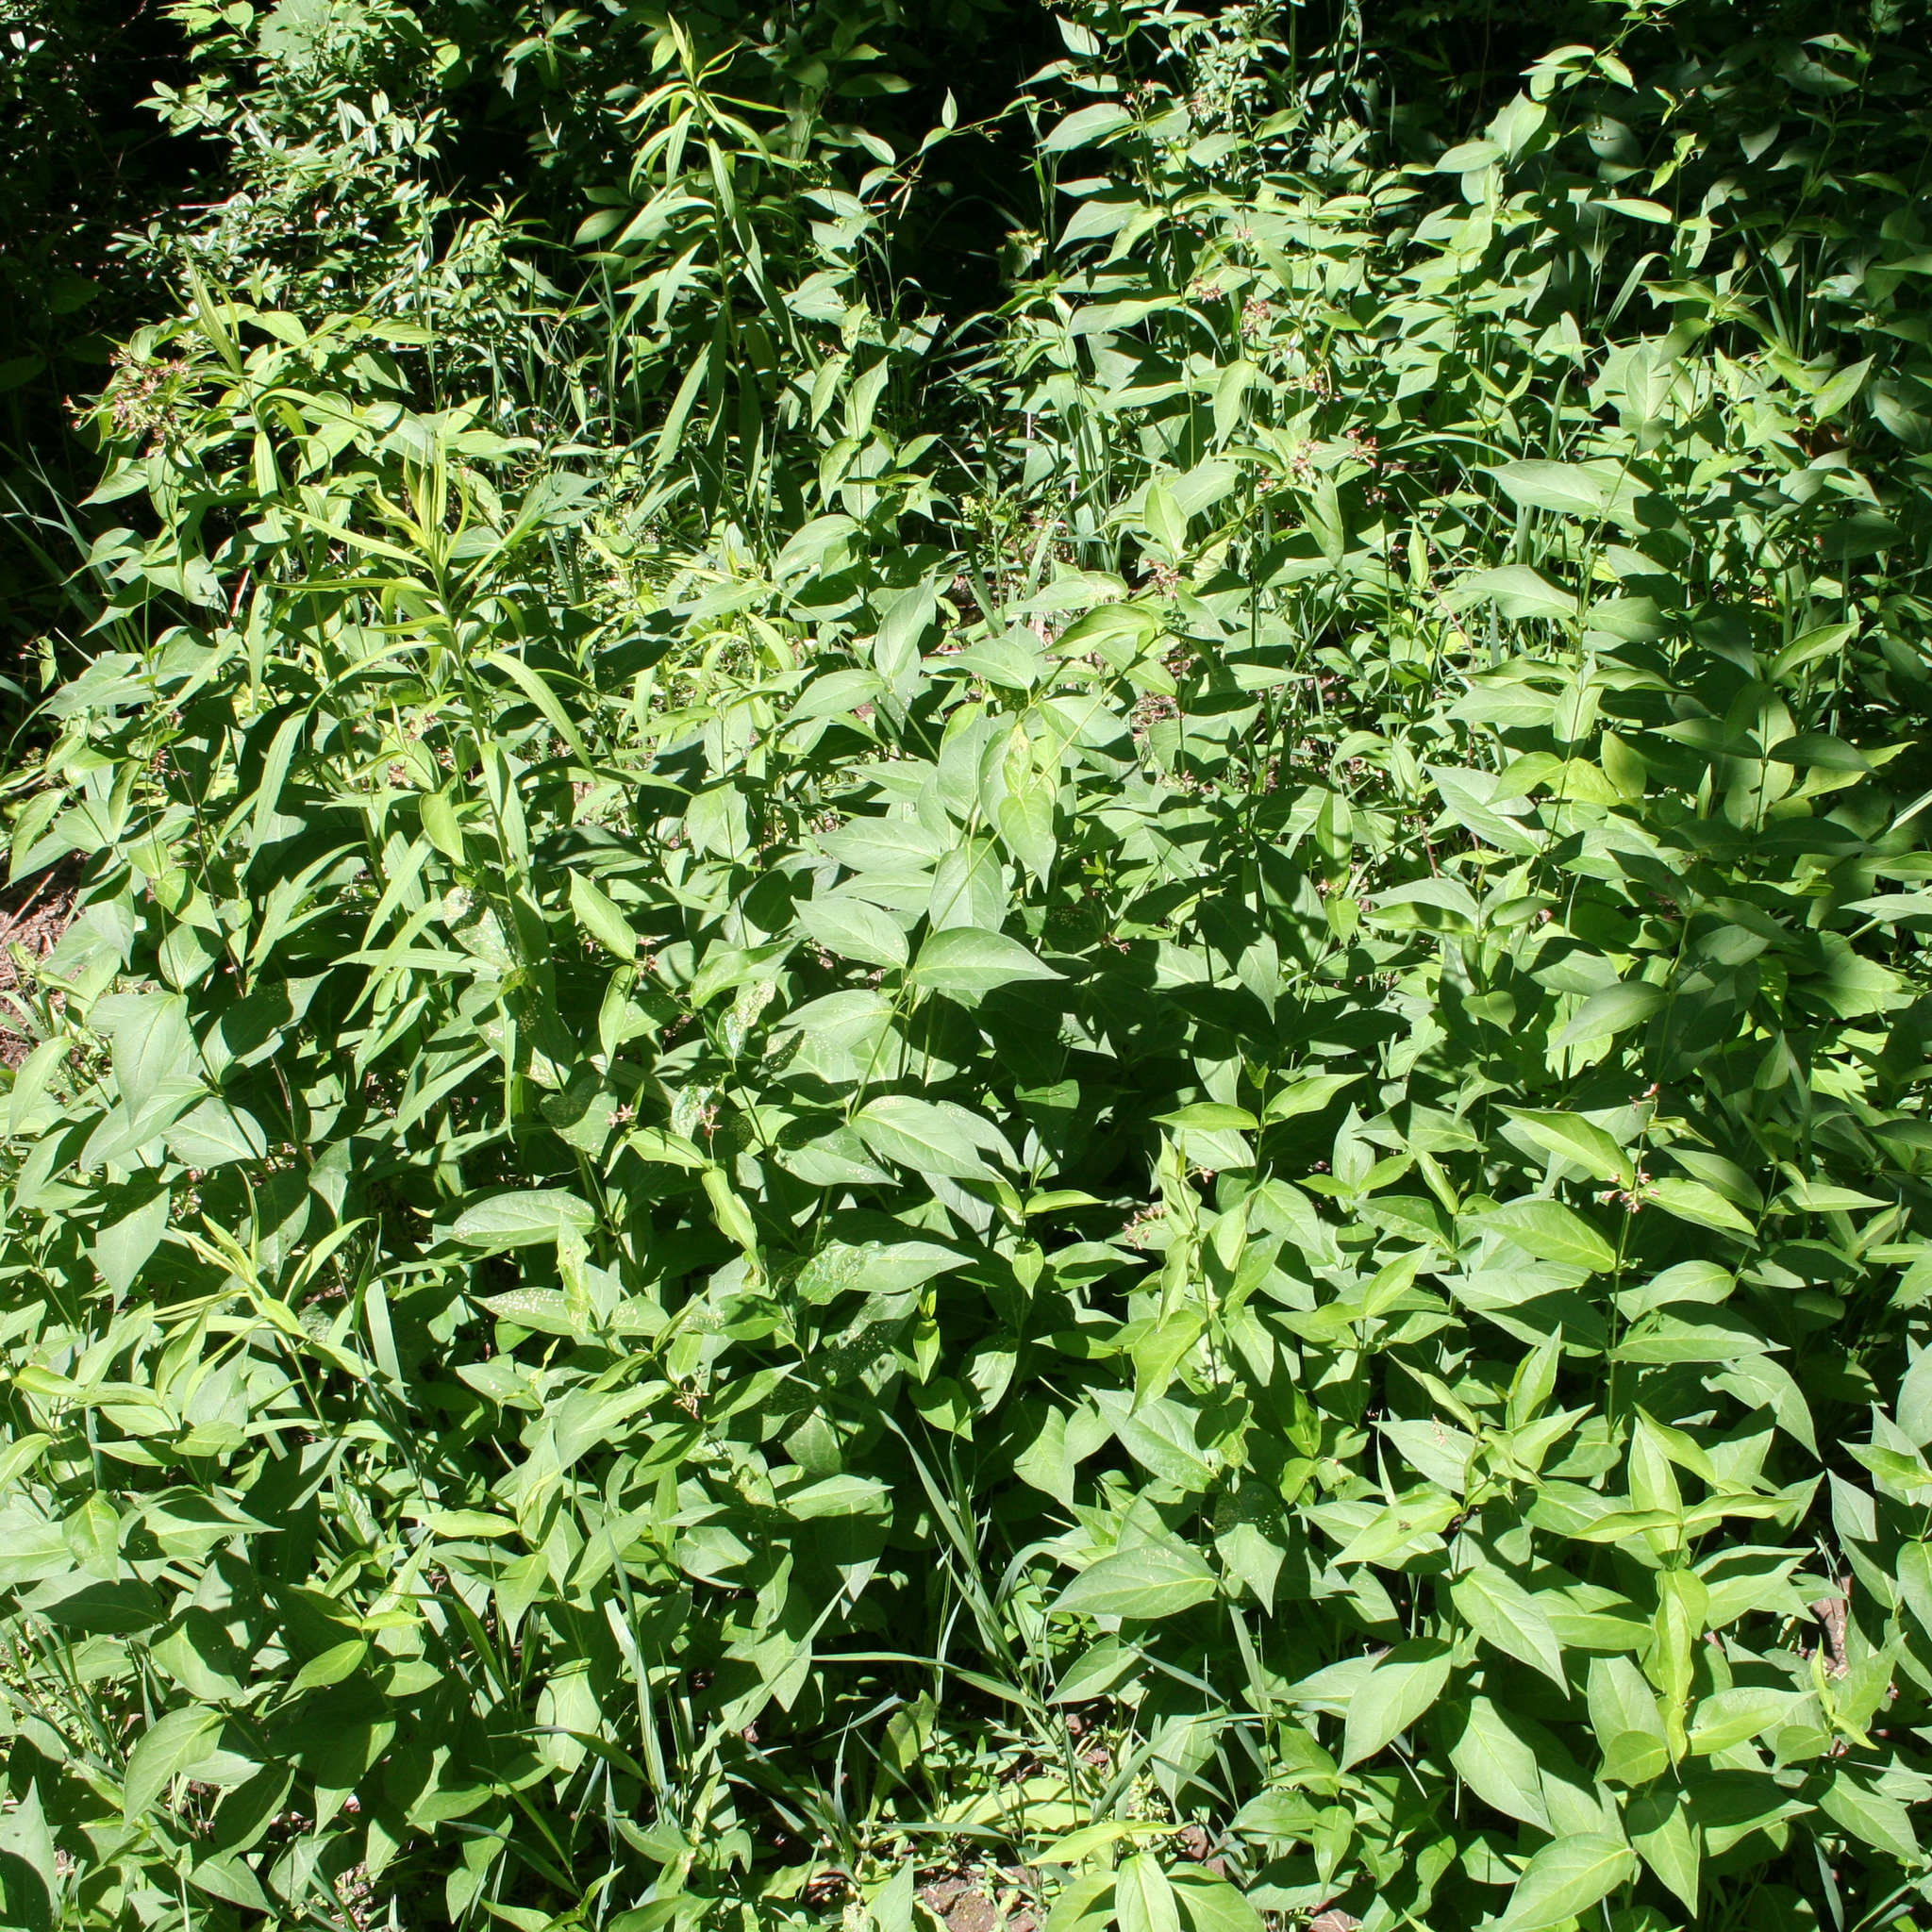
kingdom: Plantae
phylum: Tracheophyta
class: Magnoliopsida
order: Gentianales
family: Apocynaceae
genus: Vincetoxicum
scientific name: Vincetoxicum rossicum
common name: Dog-strangling vine
